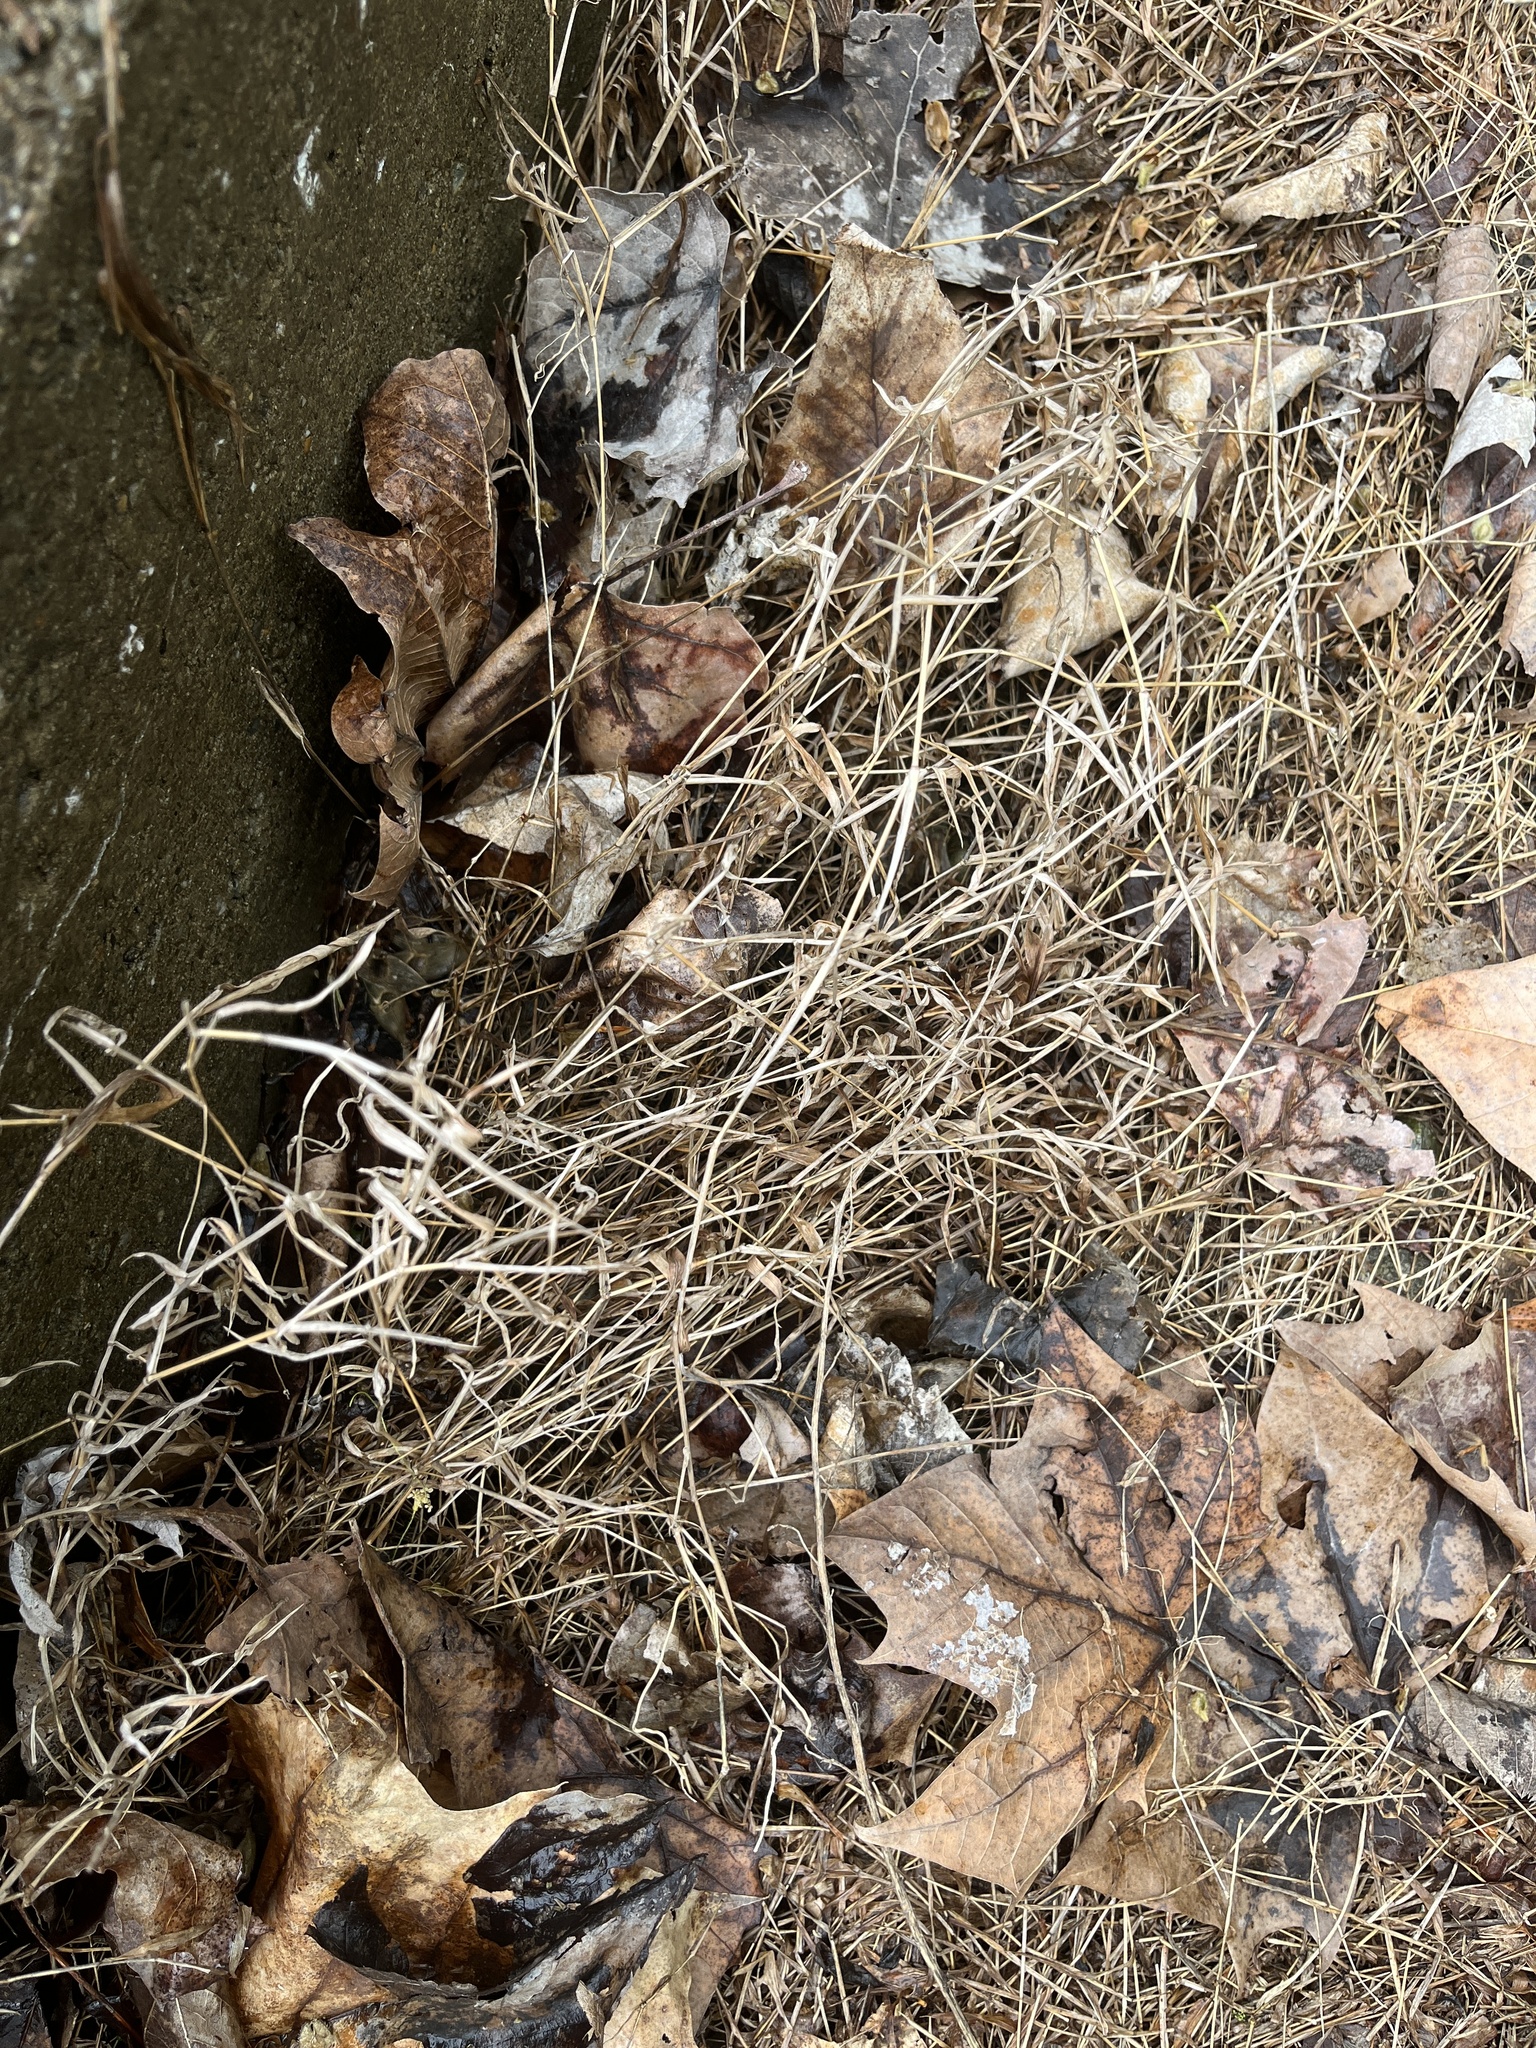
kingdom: Plantae
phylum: Tracheophyta
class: Liliopsida
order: Poales
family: Poaceae
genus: Microstegium
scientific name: Microstegium vimineum
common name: Japanese stiltgrass
